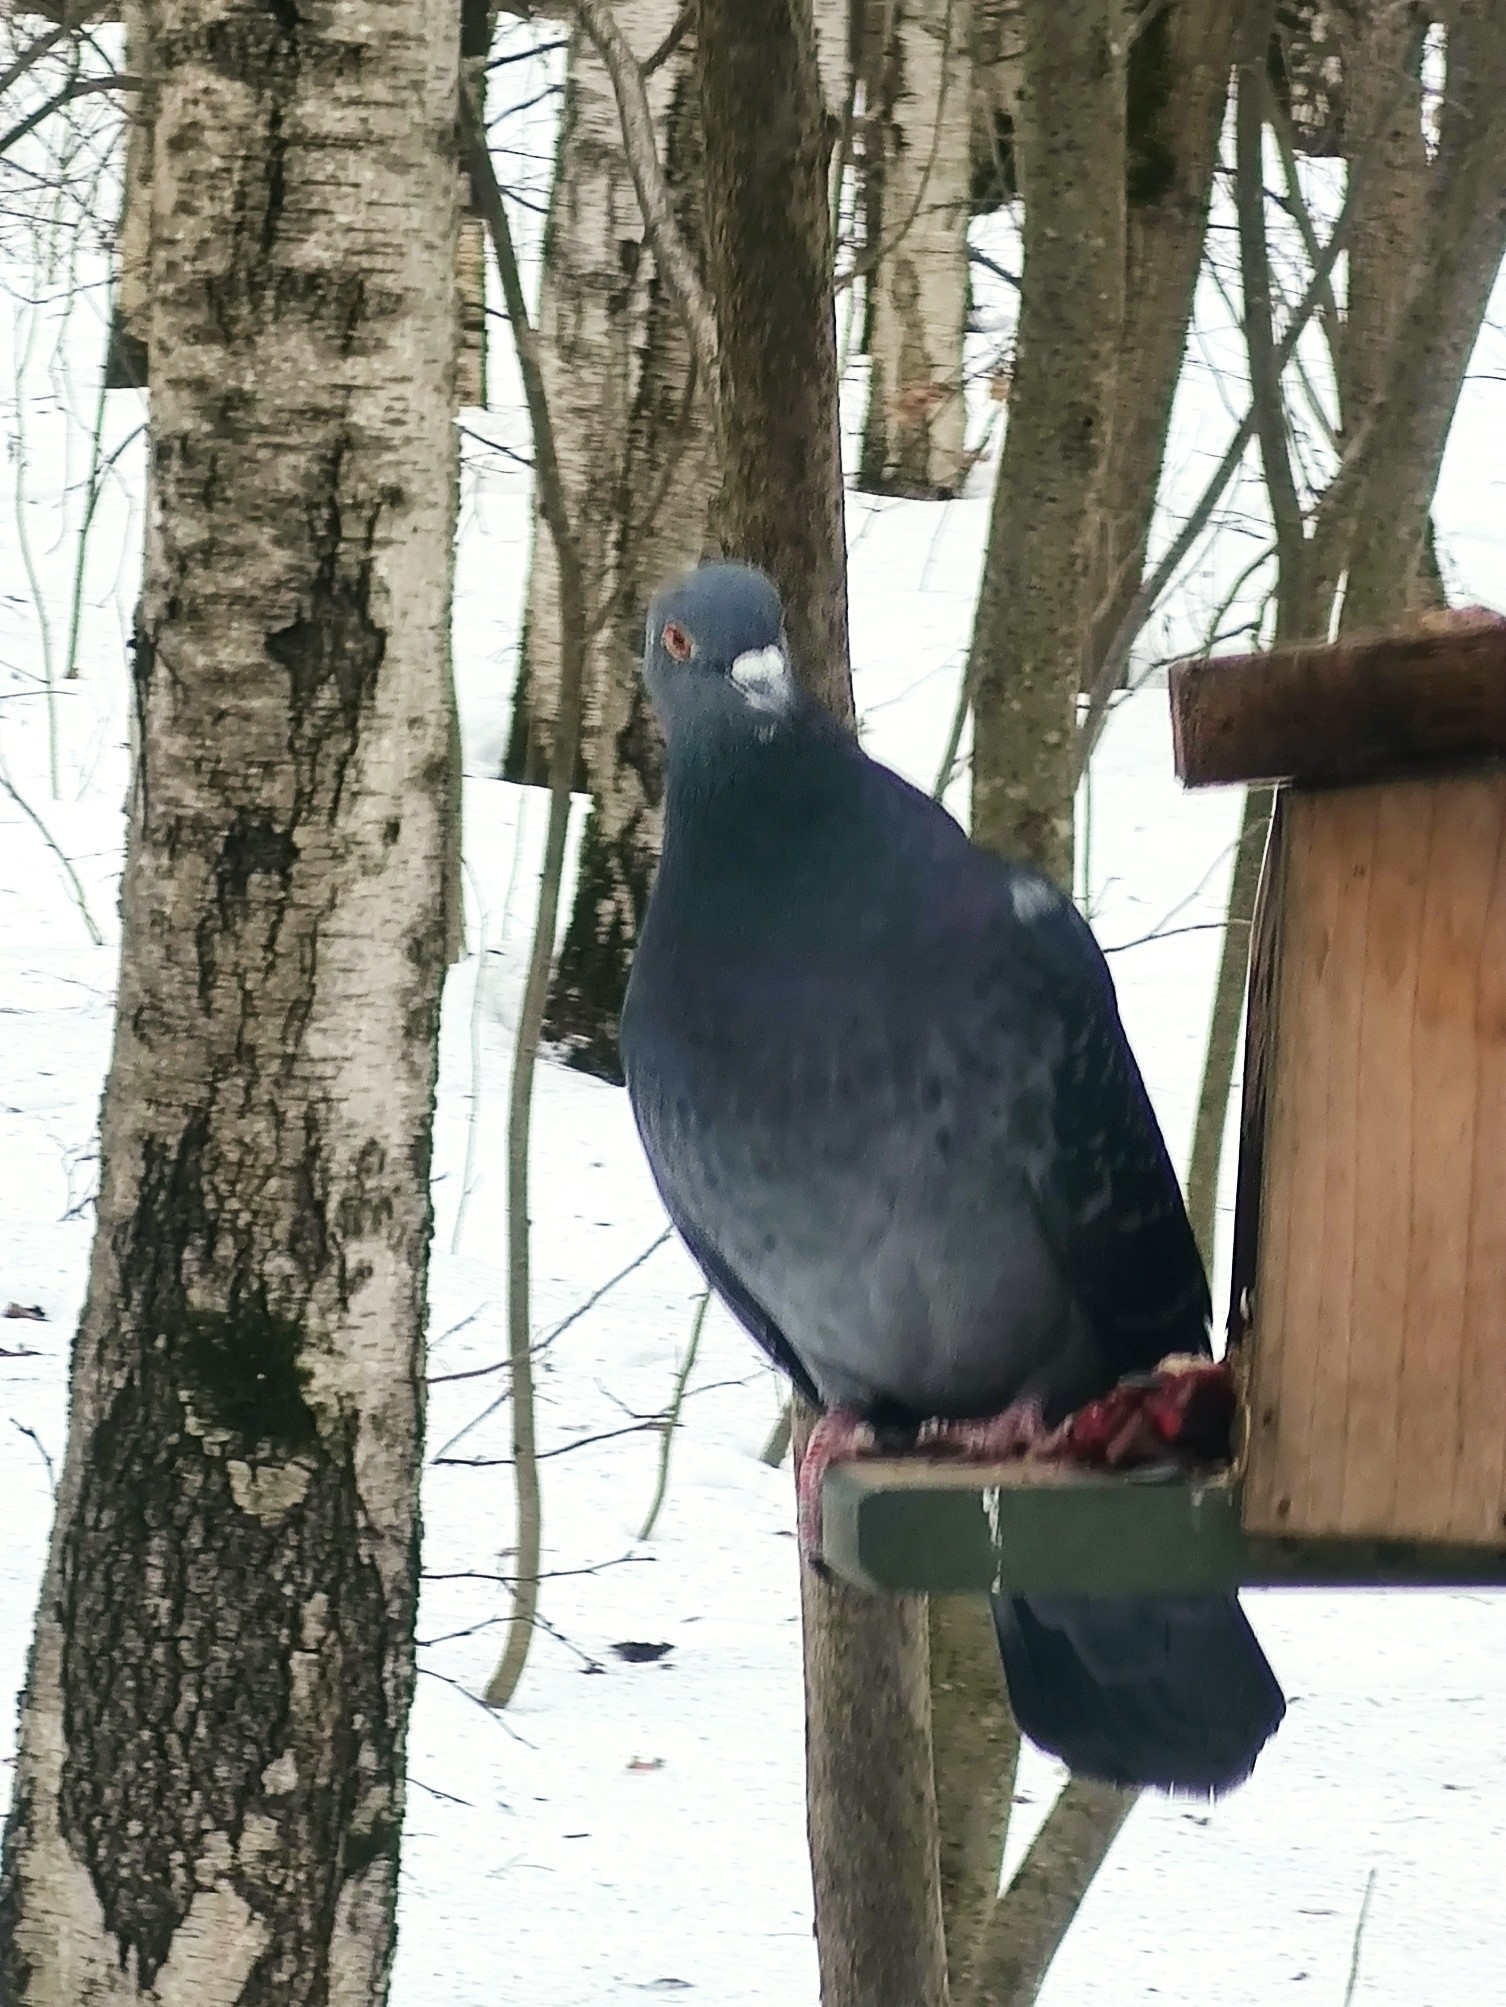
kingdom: Animalia
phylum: Chordata
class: Aves
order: Columbiformes
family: Columbidae
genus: Columba
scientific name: Columba livia
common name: Rock pigeon
